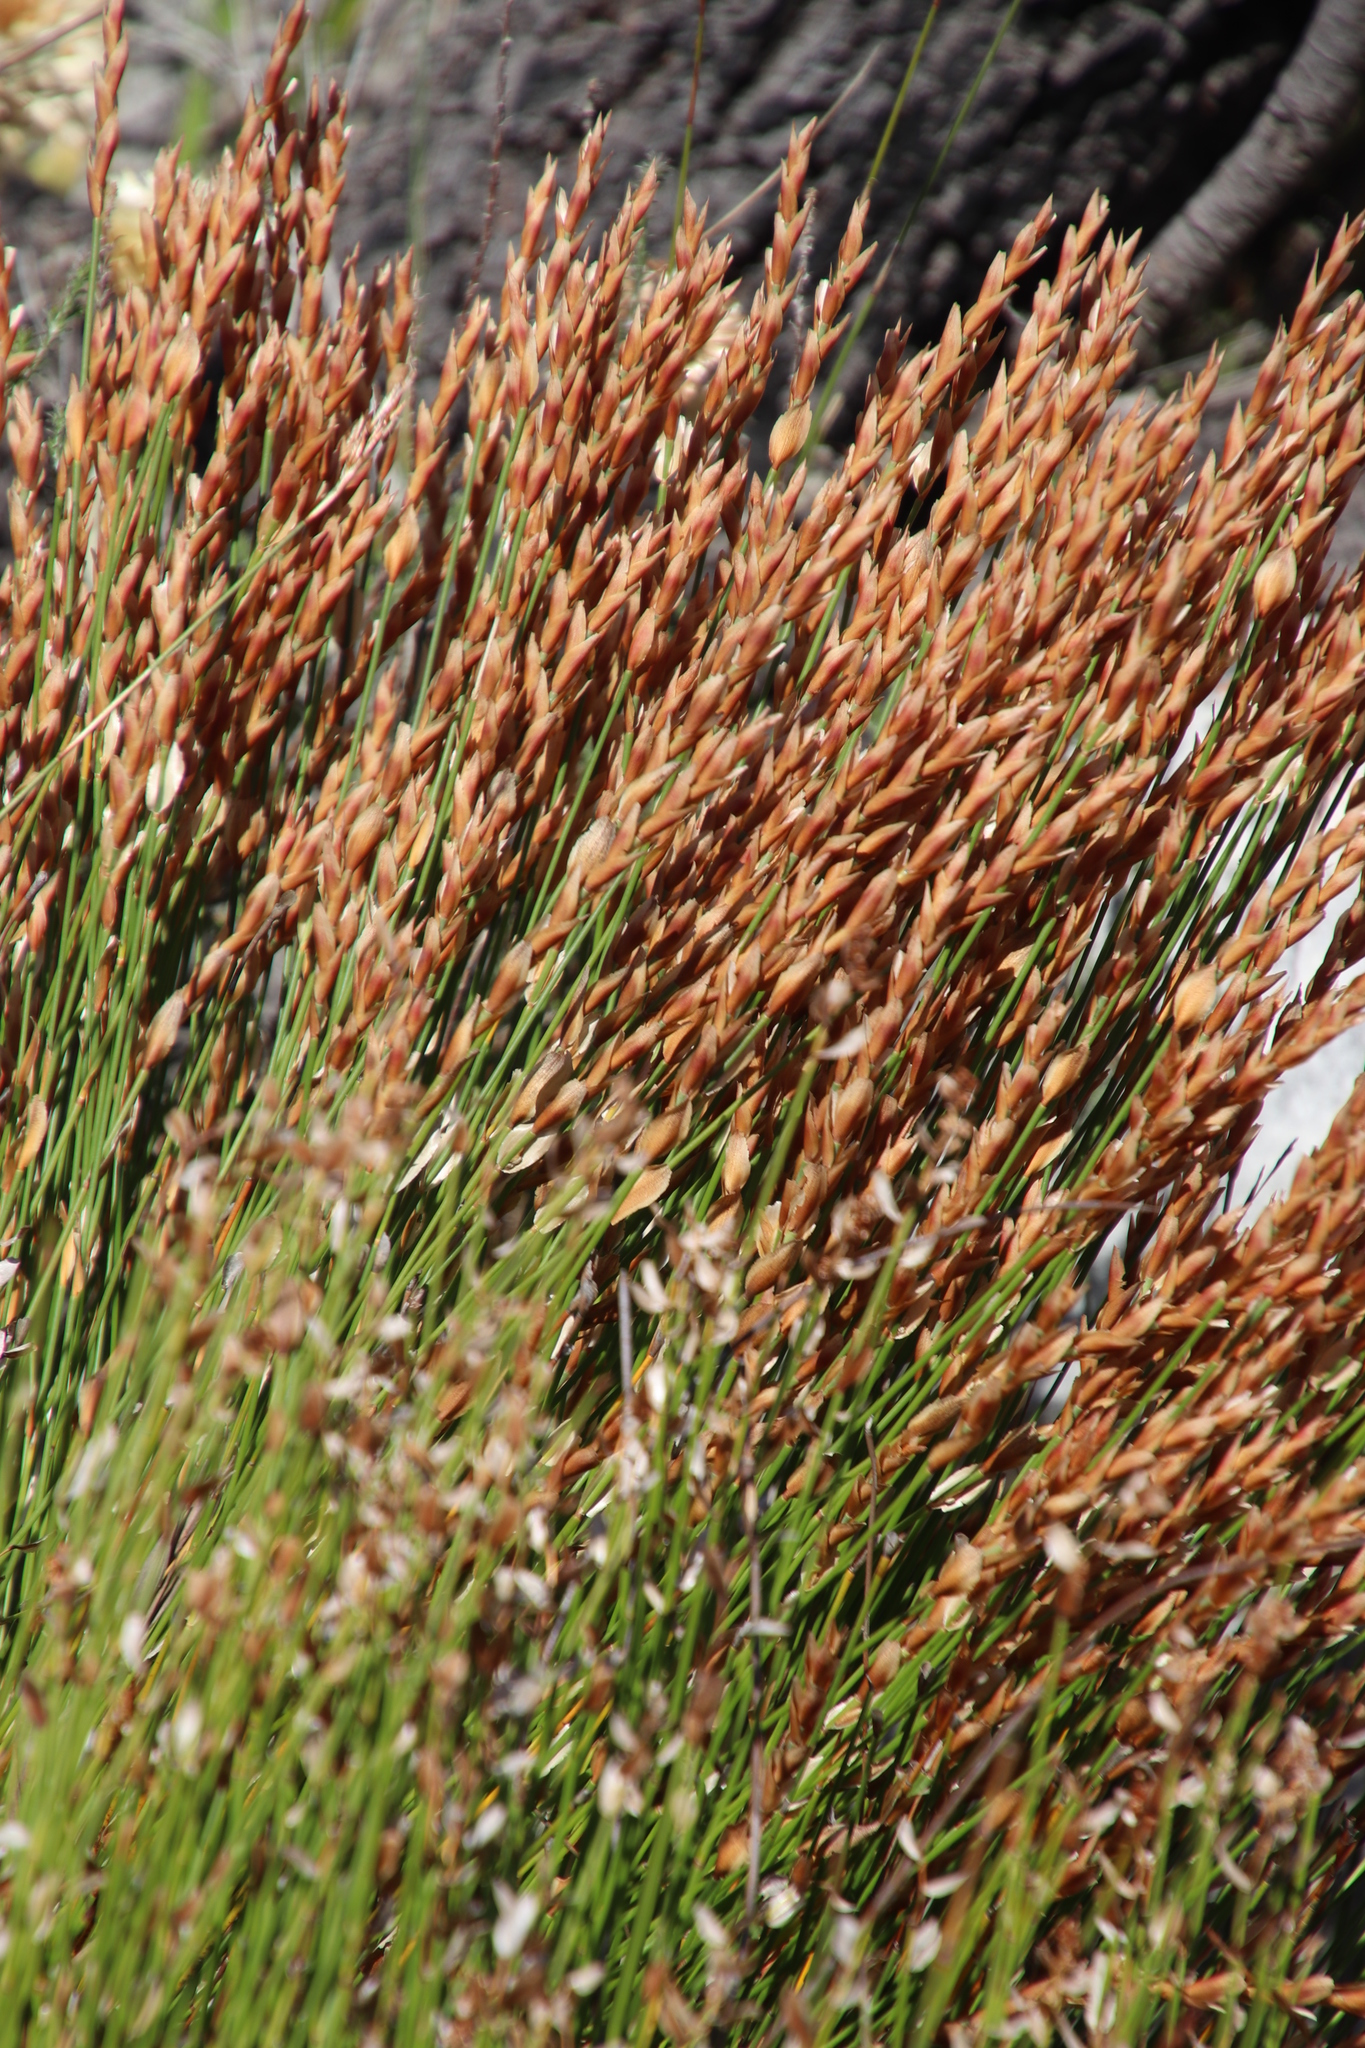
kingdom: Plantae
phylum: Tracheophyta
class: Liliopsida
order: Poales
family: Restionaceae
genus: Elegia
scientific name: Elegia stipularis
